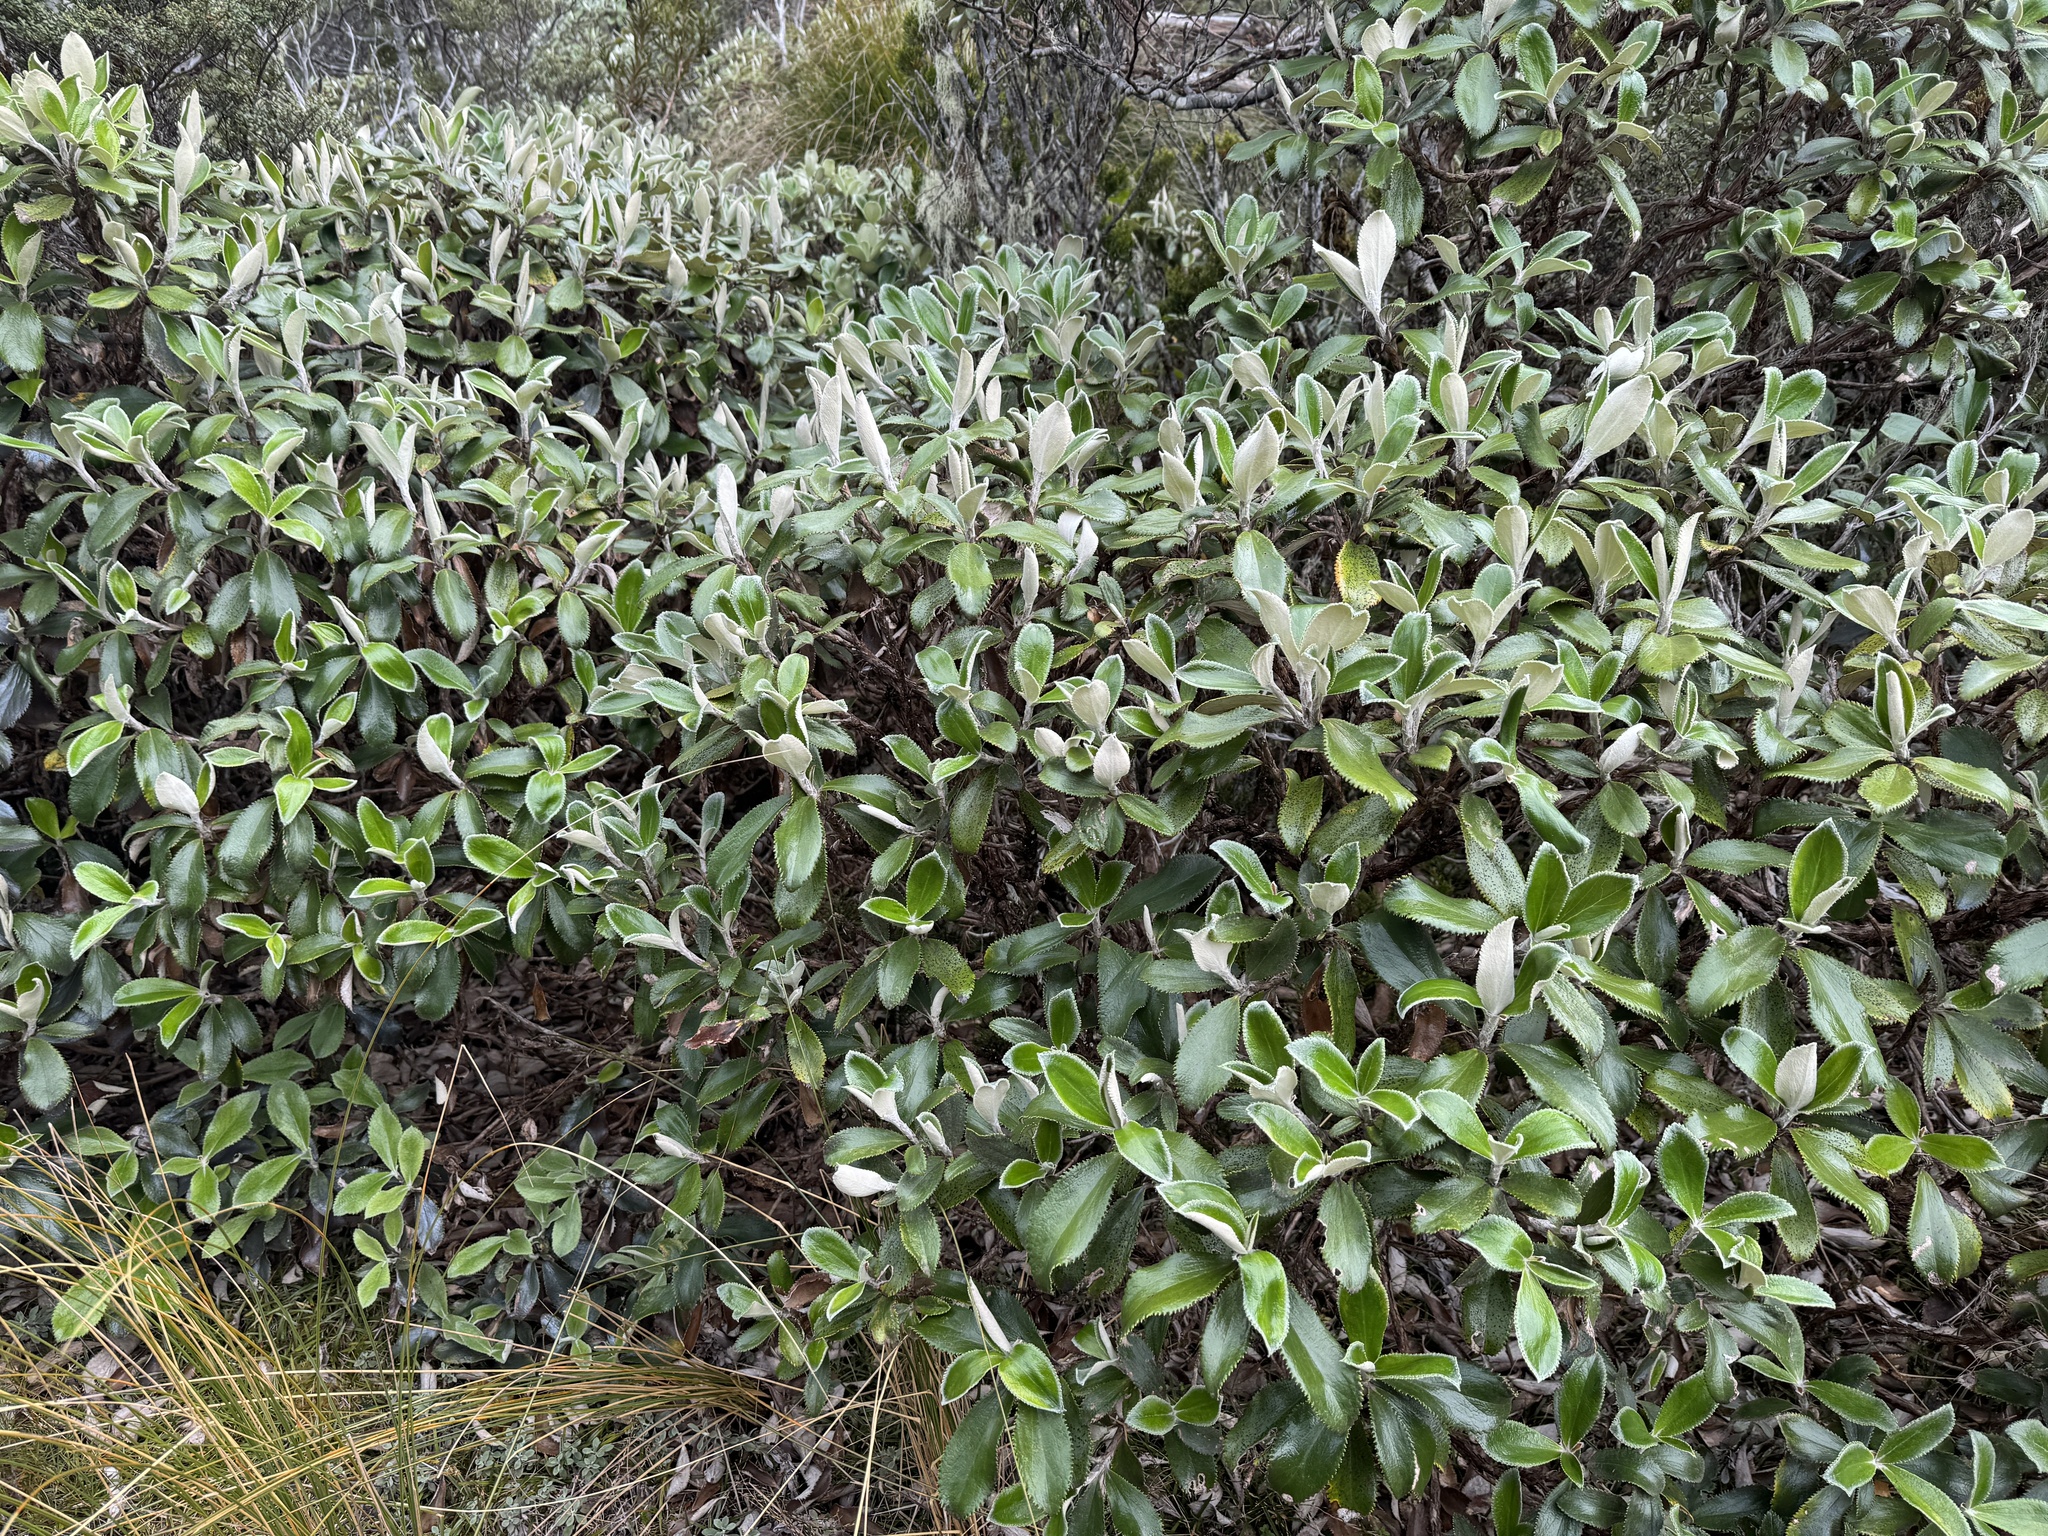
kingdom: Plantae
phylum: Tracheophyta
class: Magnoliopsida
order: Asterales
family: Asteraceae
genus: Macrolearia
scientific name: Macrolearia colensoi
